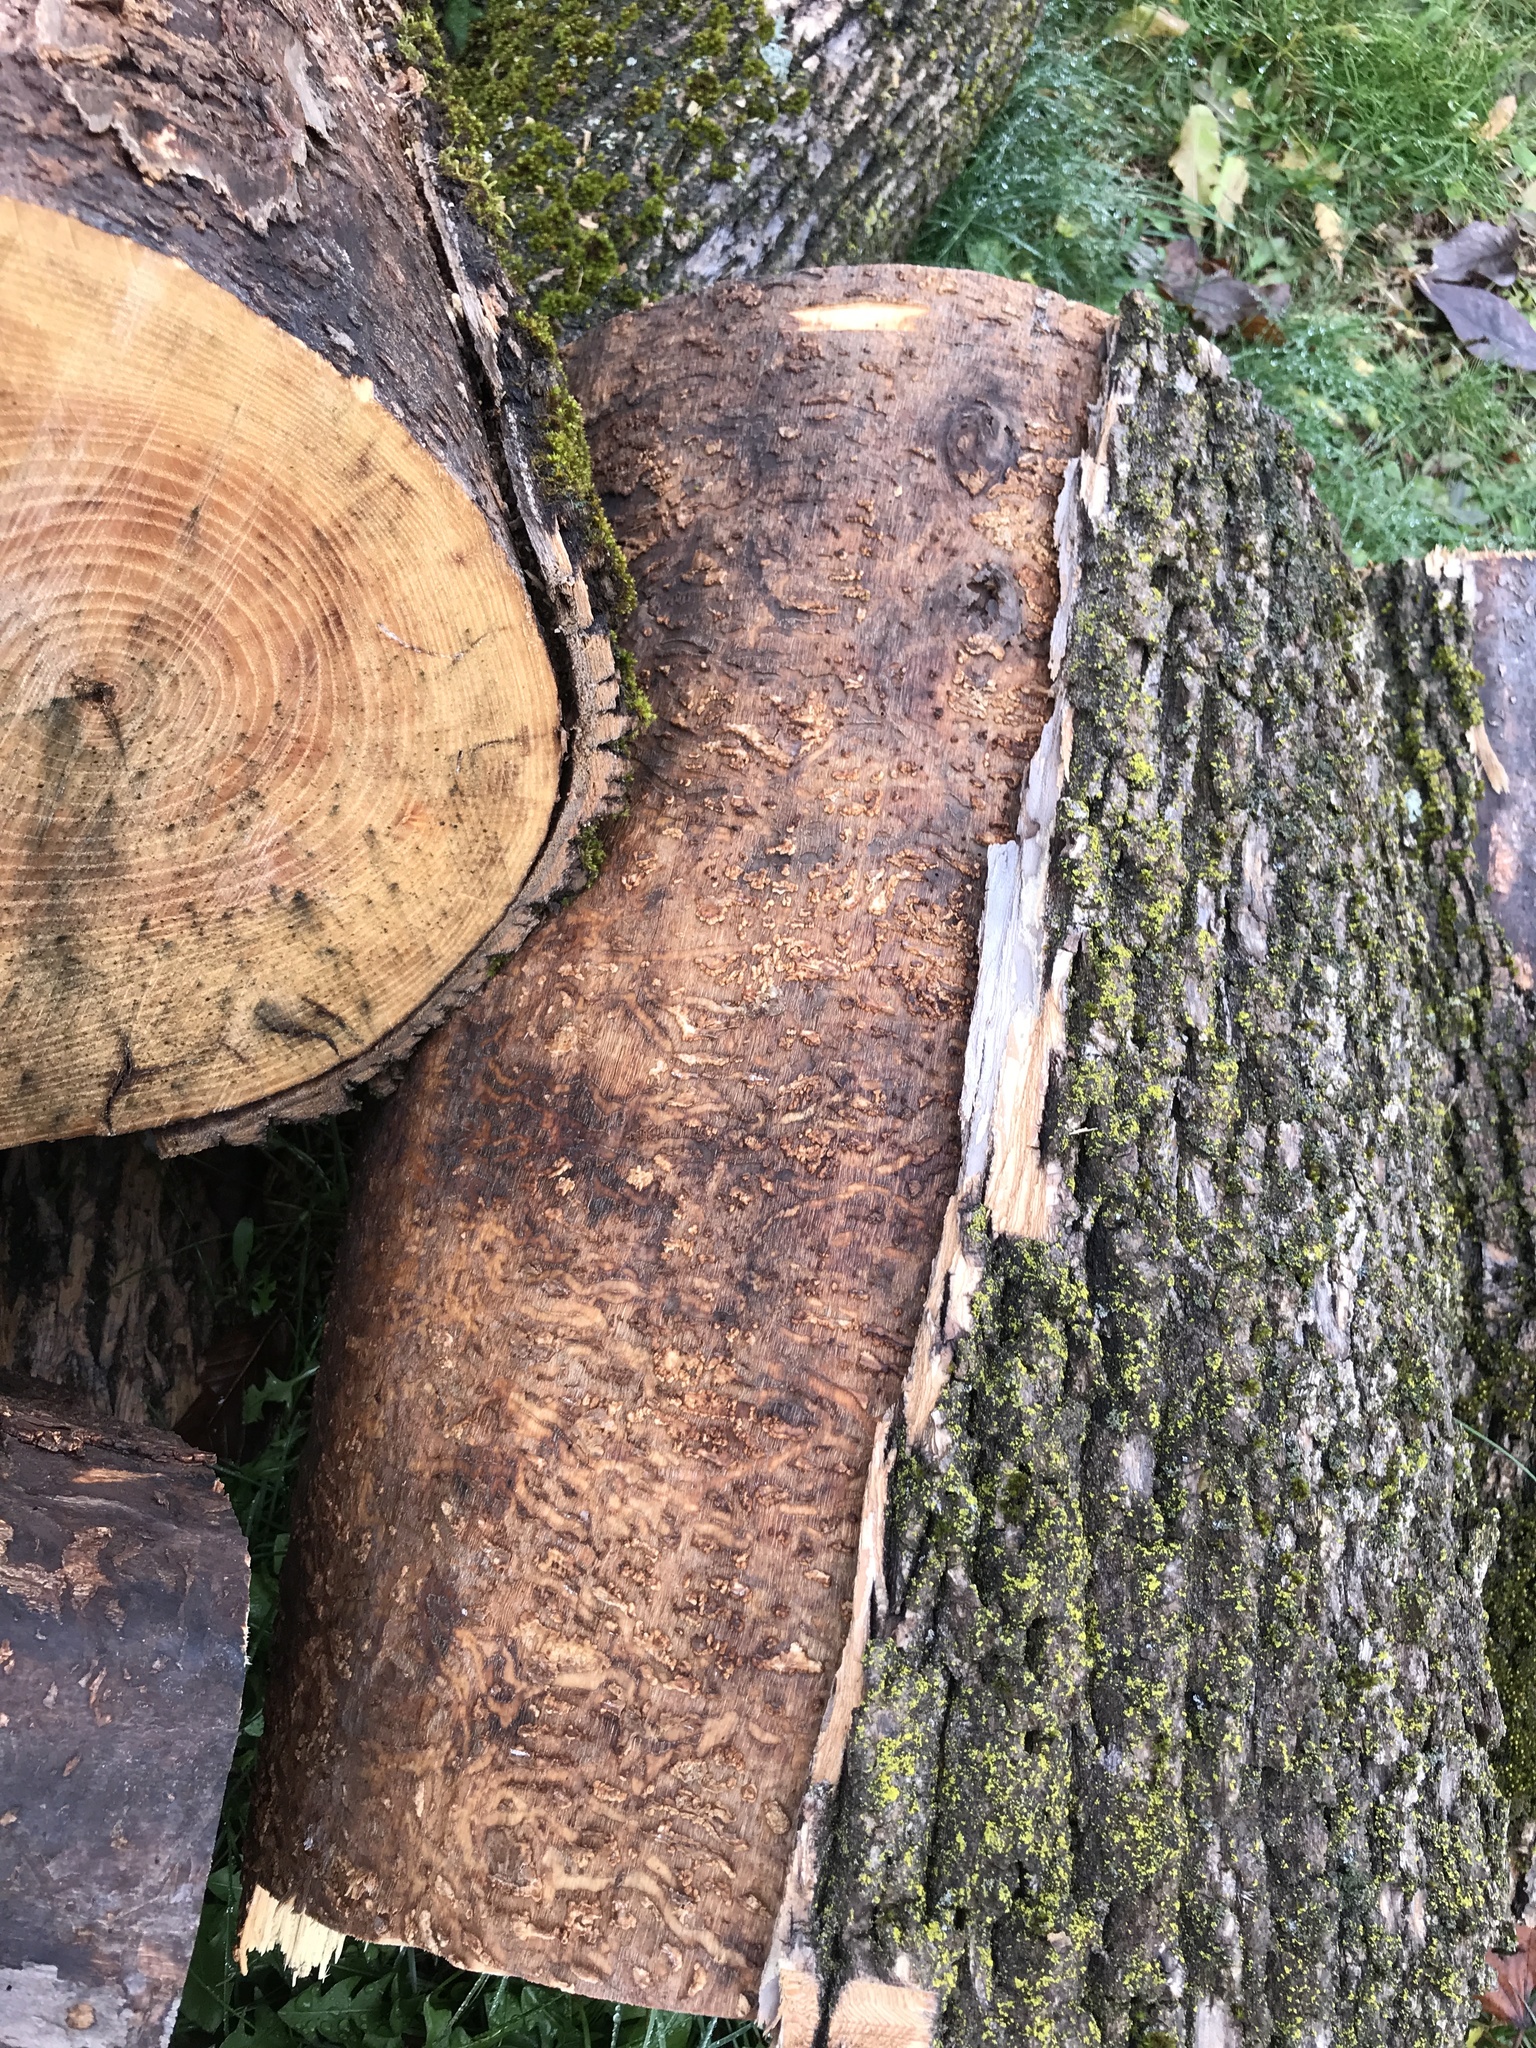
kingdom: Animalia
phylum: Arthropoda
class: Insecta
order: Coleoptera
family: Buprestidae
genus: Agrilus
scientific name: Agrilus planipennis
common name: Emerald ash borer
